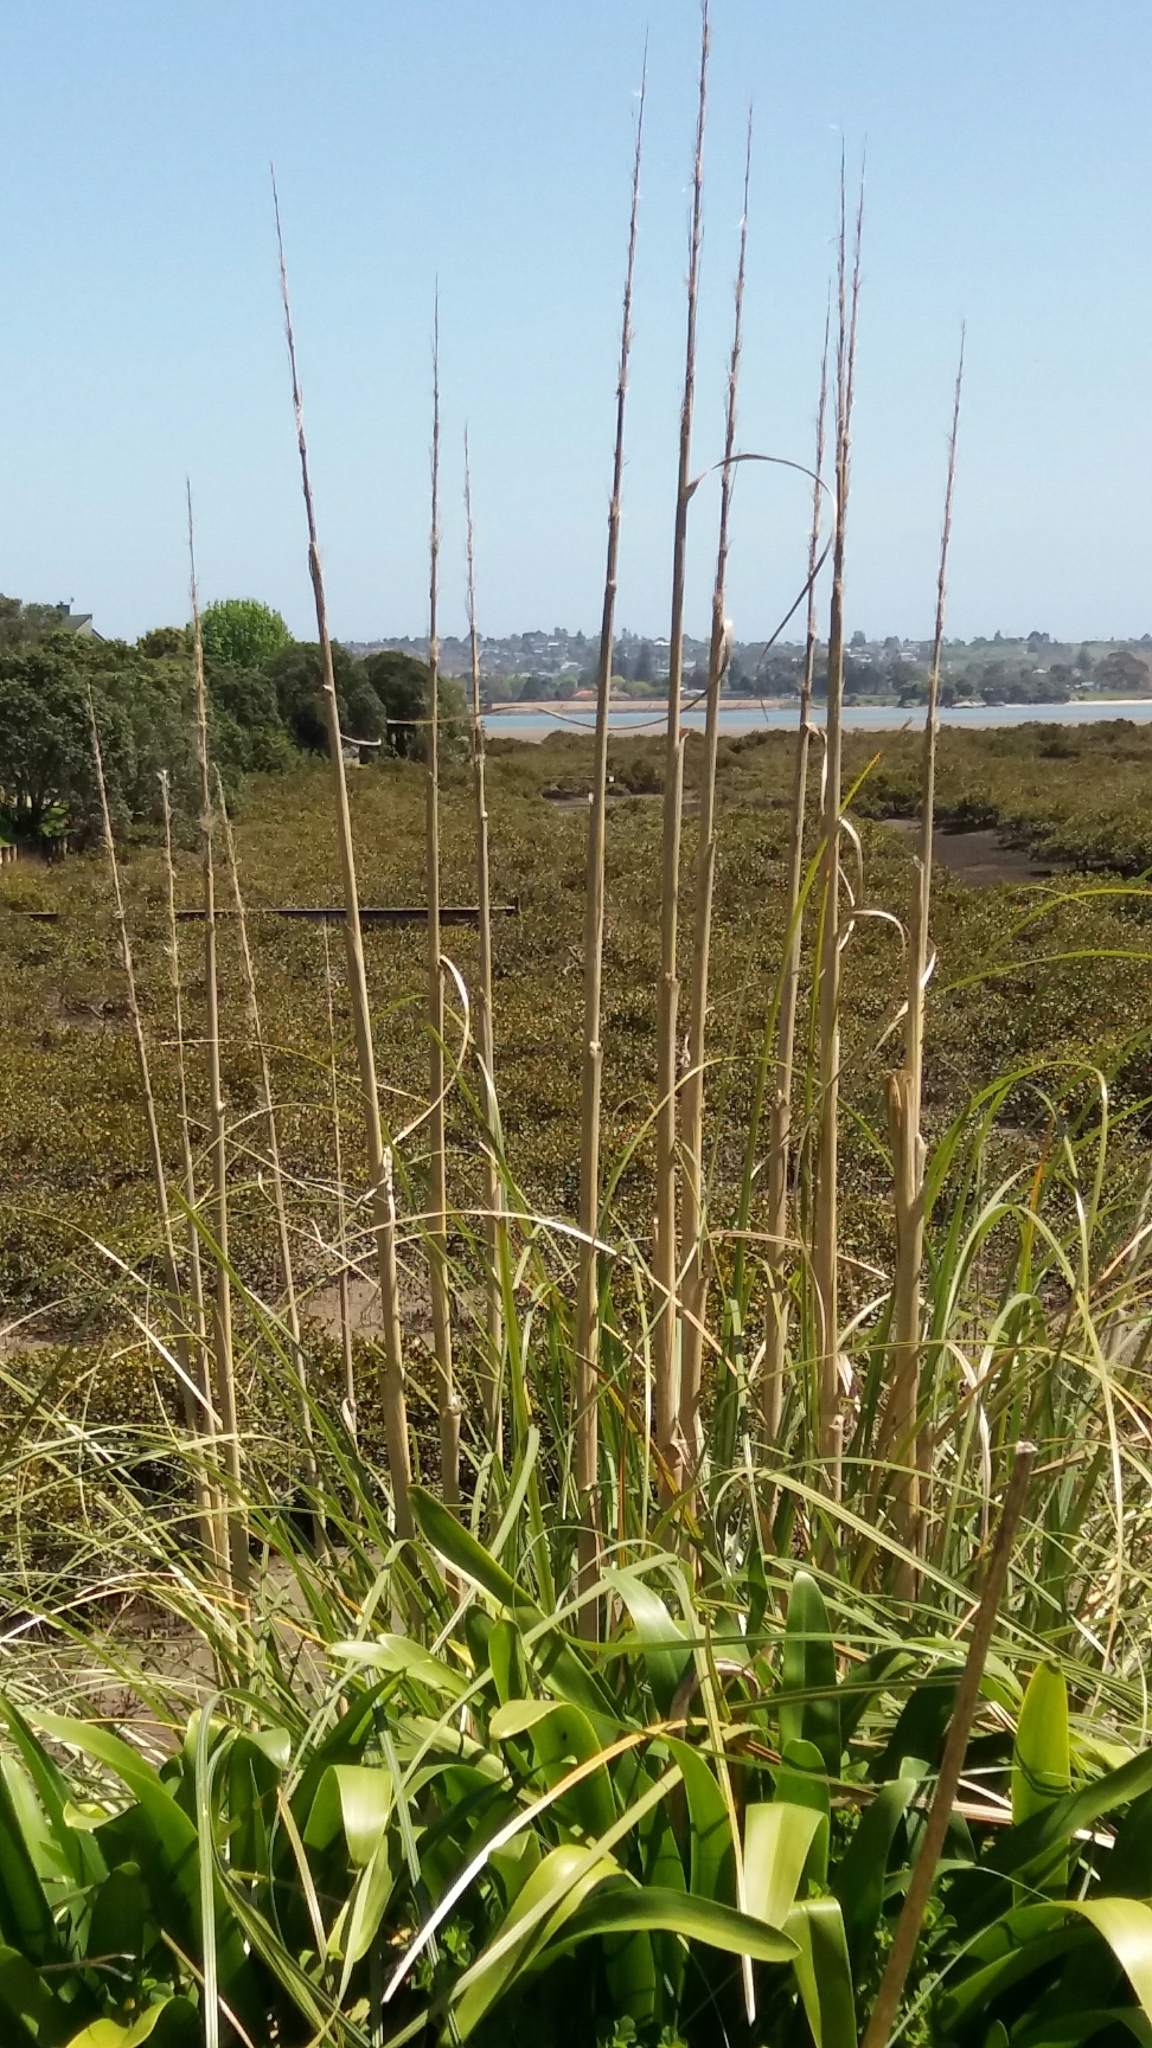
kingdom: Plantae
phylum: Tracheophyta
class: Liliopsida
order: Poales
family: Poaceae
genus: Cortaderia
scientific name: Cortaderia selloana
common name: Uruguayan pampas grass
